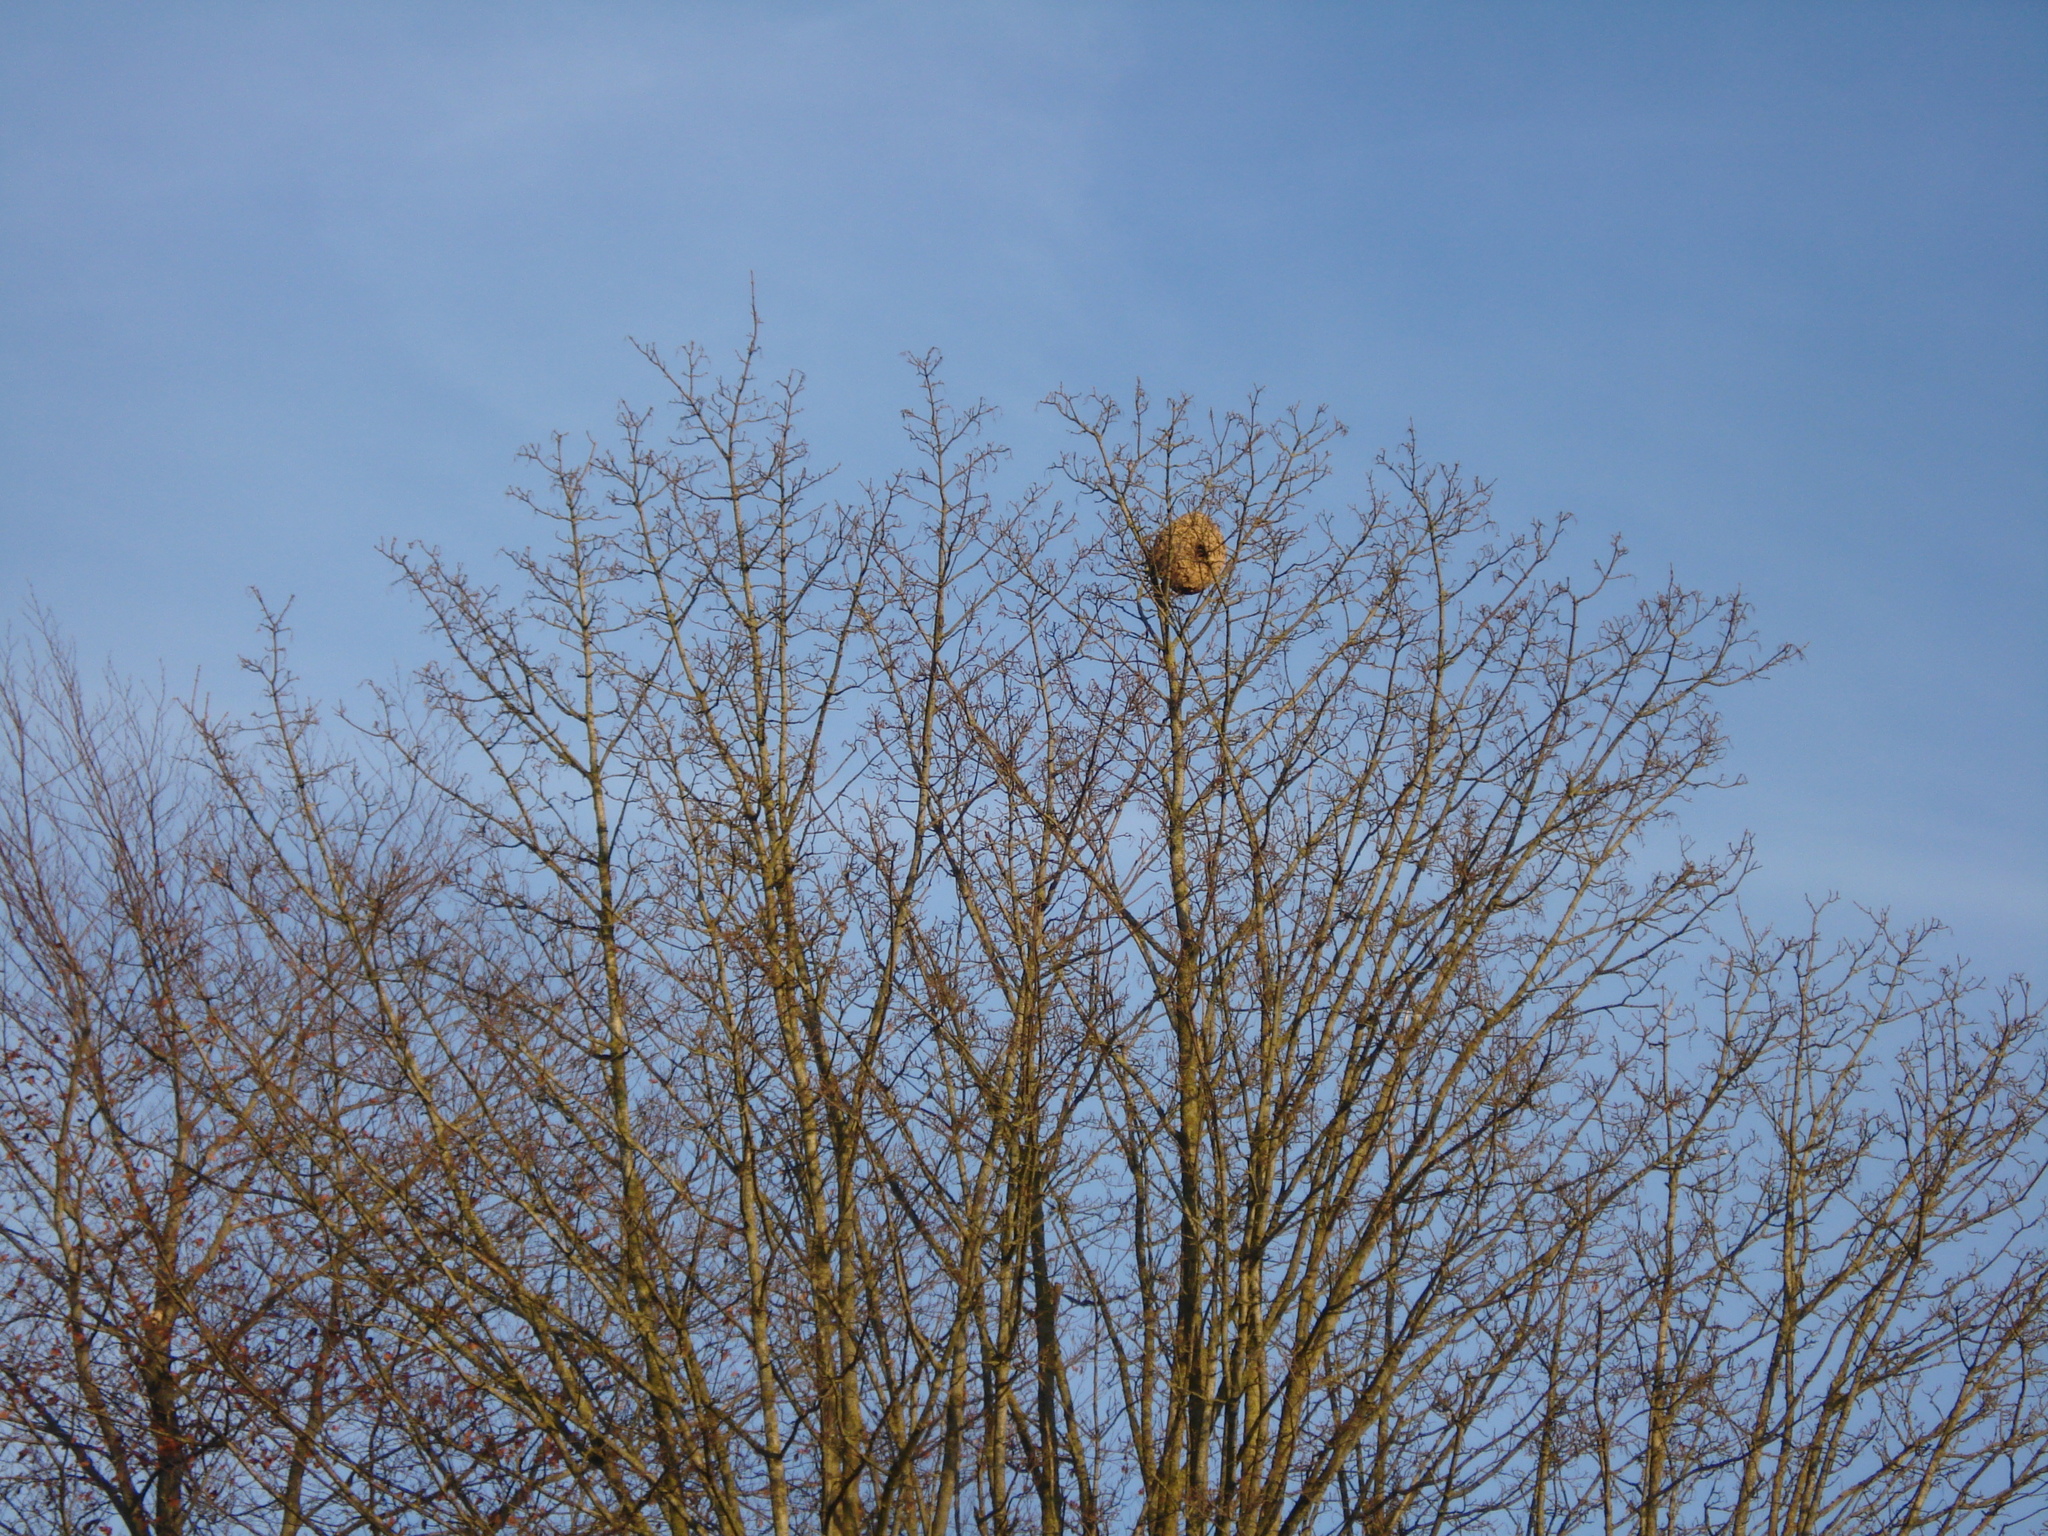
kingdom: Animalia
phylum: Arthropoda
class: Insecta
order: Hymenoptera
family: Vespidae
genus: Vespa
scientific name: Vespa velutina
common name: Asian hornet
